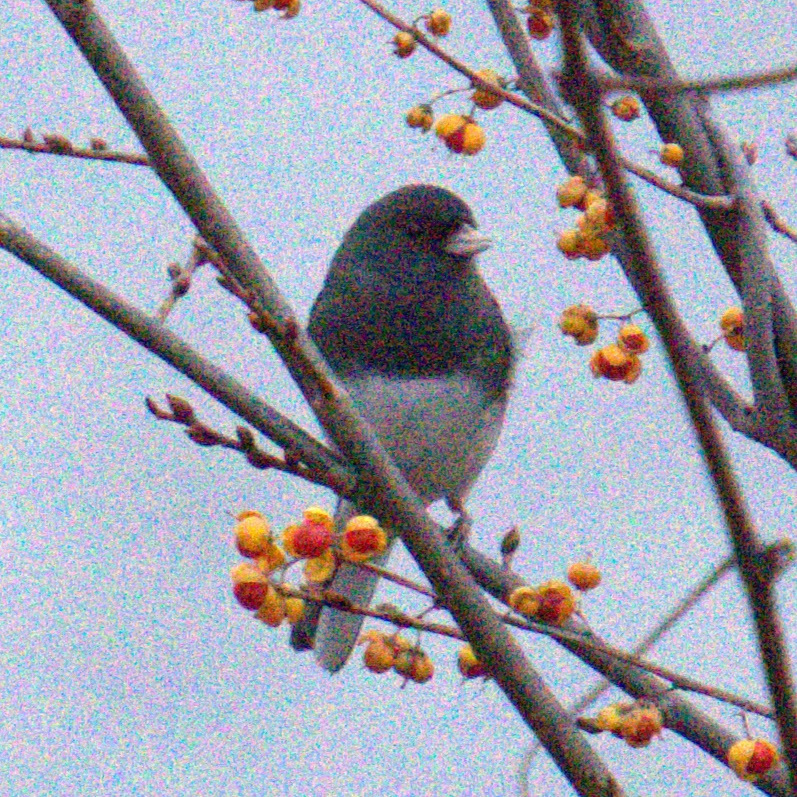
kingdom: Animalia
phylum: Chordata
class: Aves
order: Passeriformes
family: Passerellidae
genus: Junco
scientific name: Junco hyemalis
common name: Dark-eyed junco
